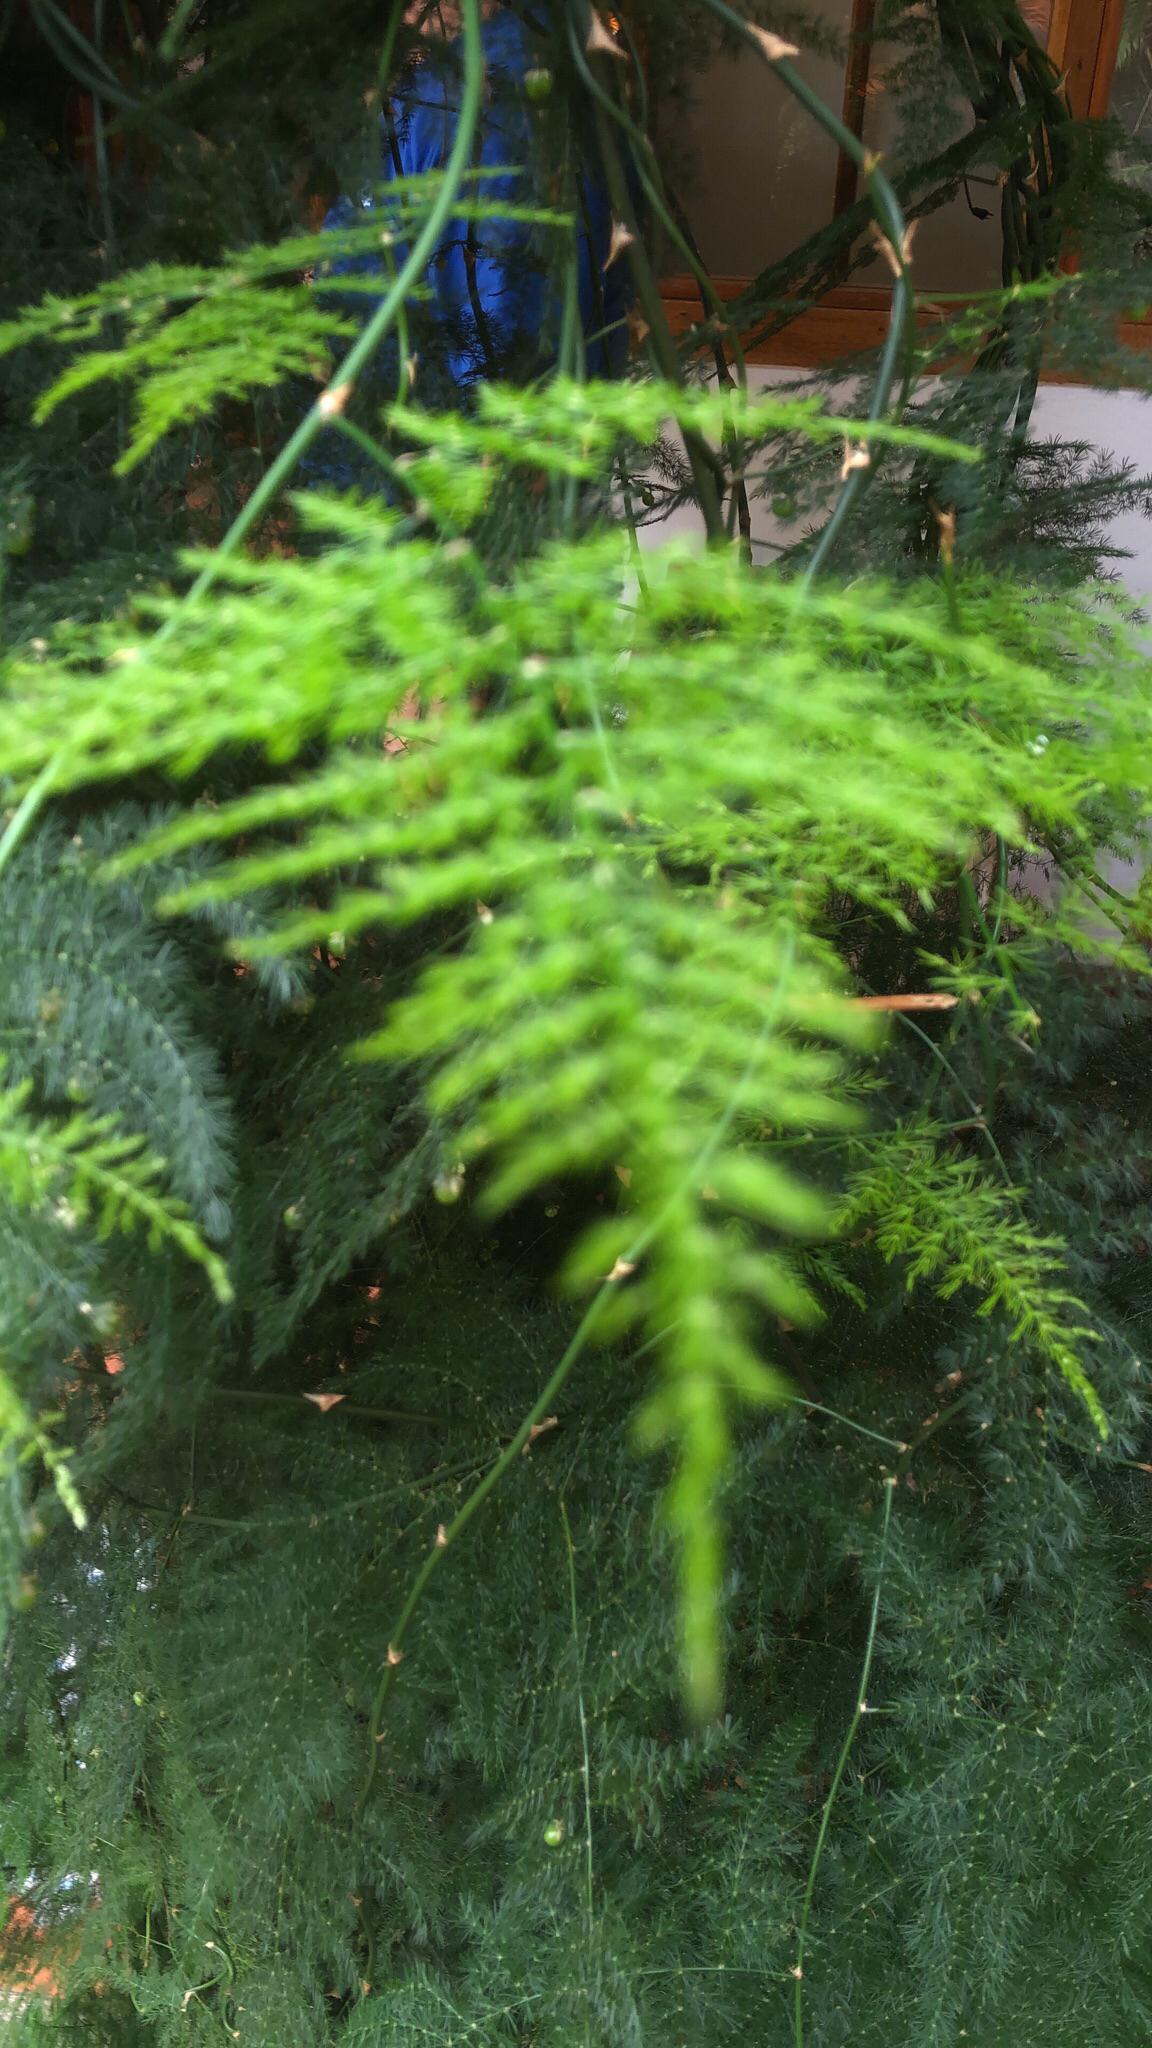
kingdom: Plantae
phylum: Tracheophyta
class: Liliopsida
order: Asparagales
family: Asparagaceae
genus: Asparagus
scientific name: Asparagus setaceus
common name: Common asparagus fern
